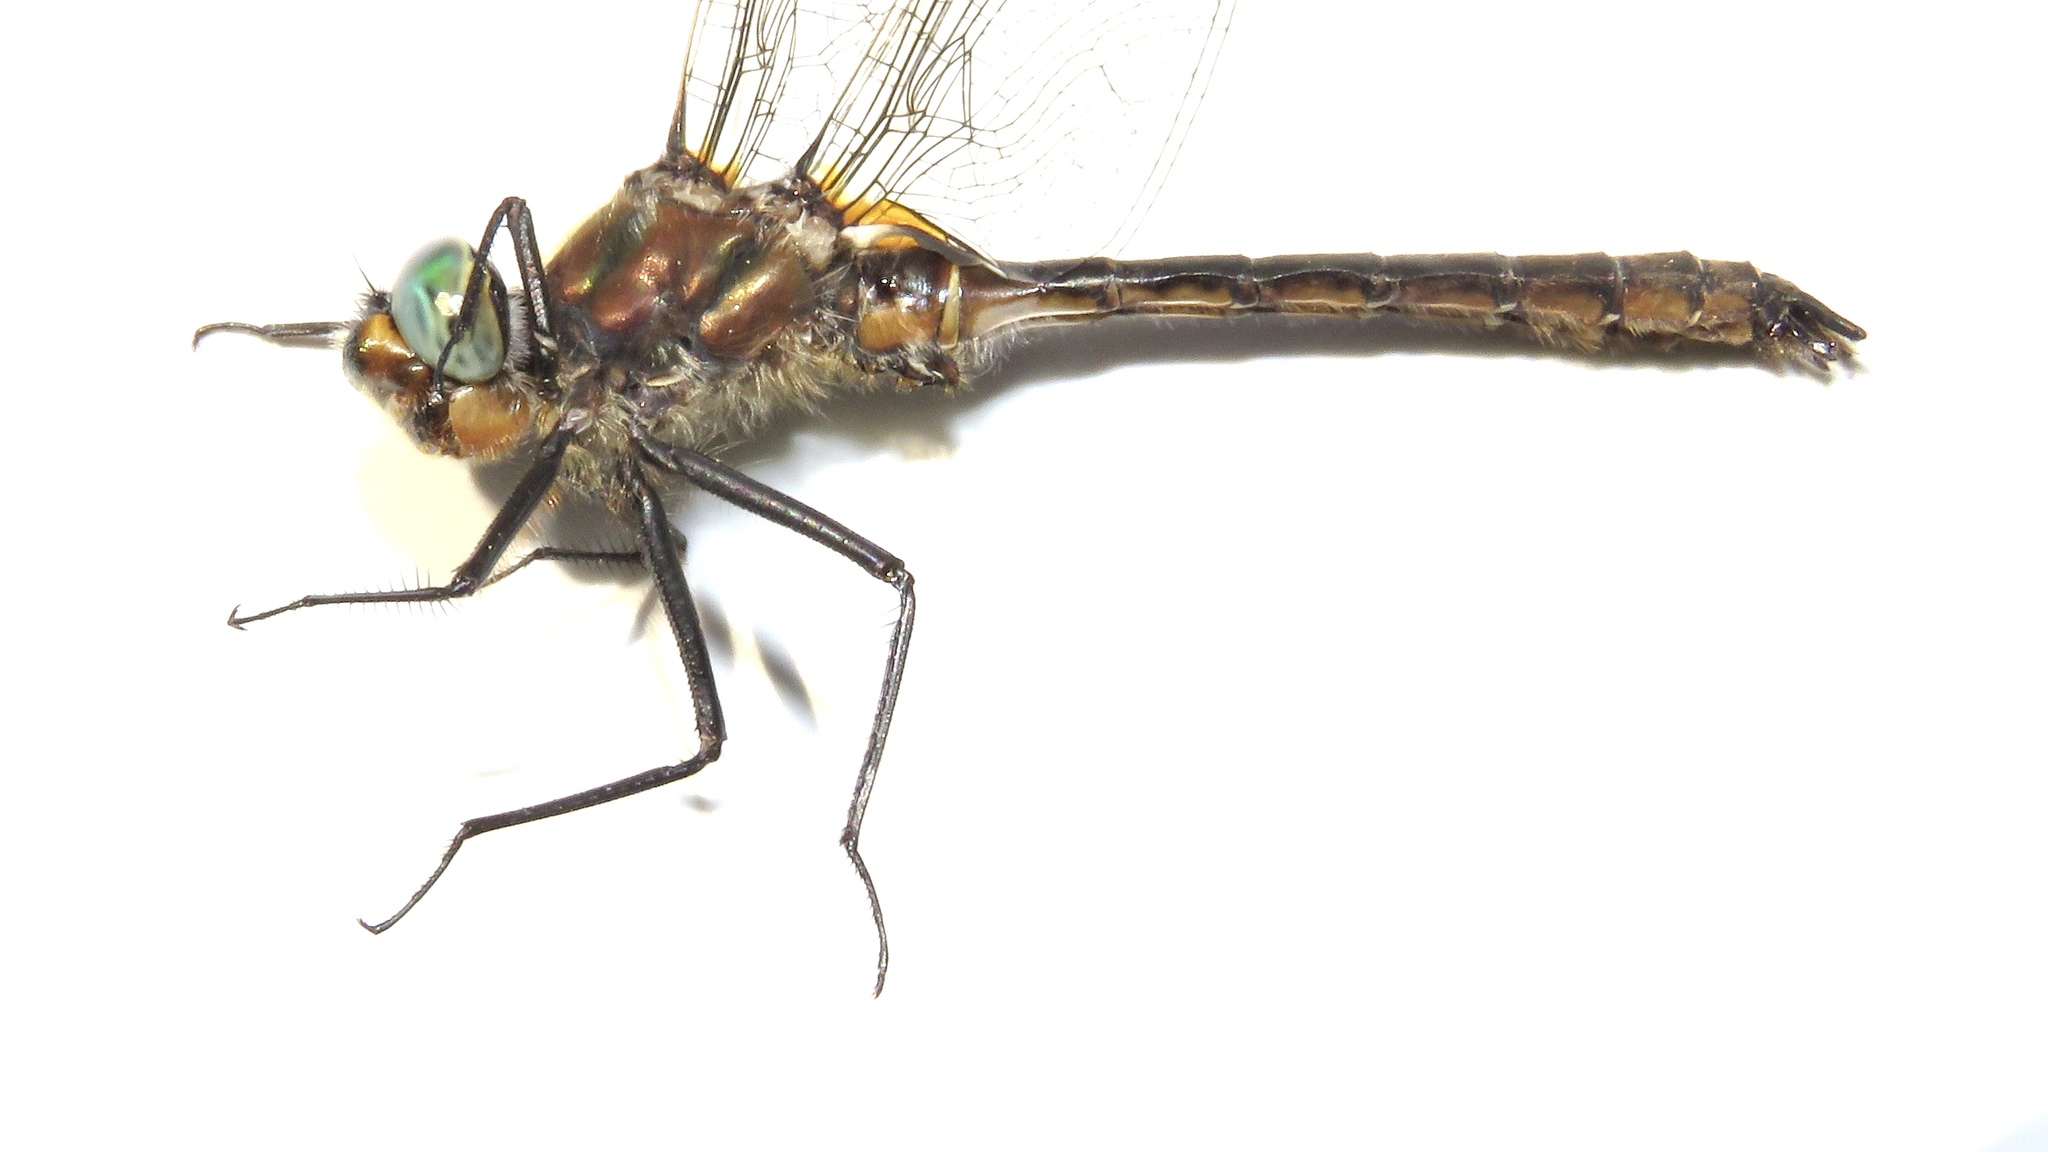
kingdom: Animalia
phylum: Arthropoda
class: Insecta
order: Odonata
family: Corduliidae
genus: Cordulia
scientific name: Cordulia shurtleffii
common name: American emerald
